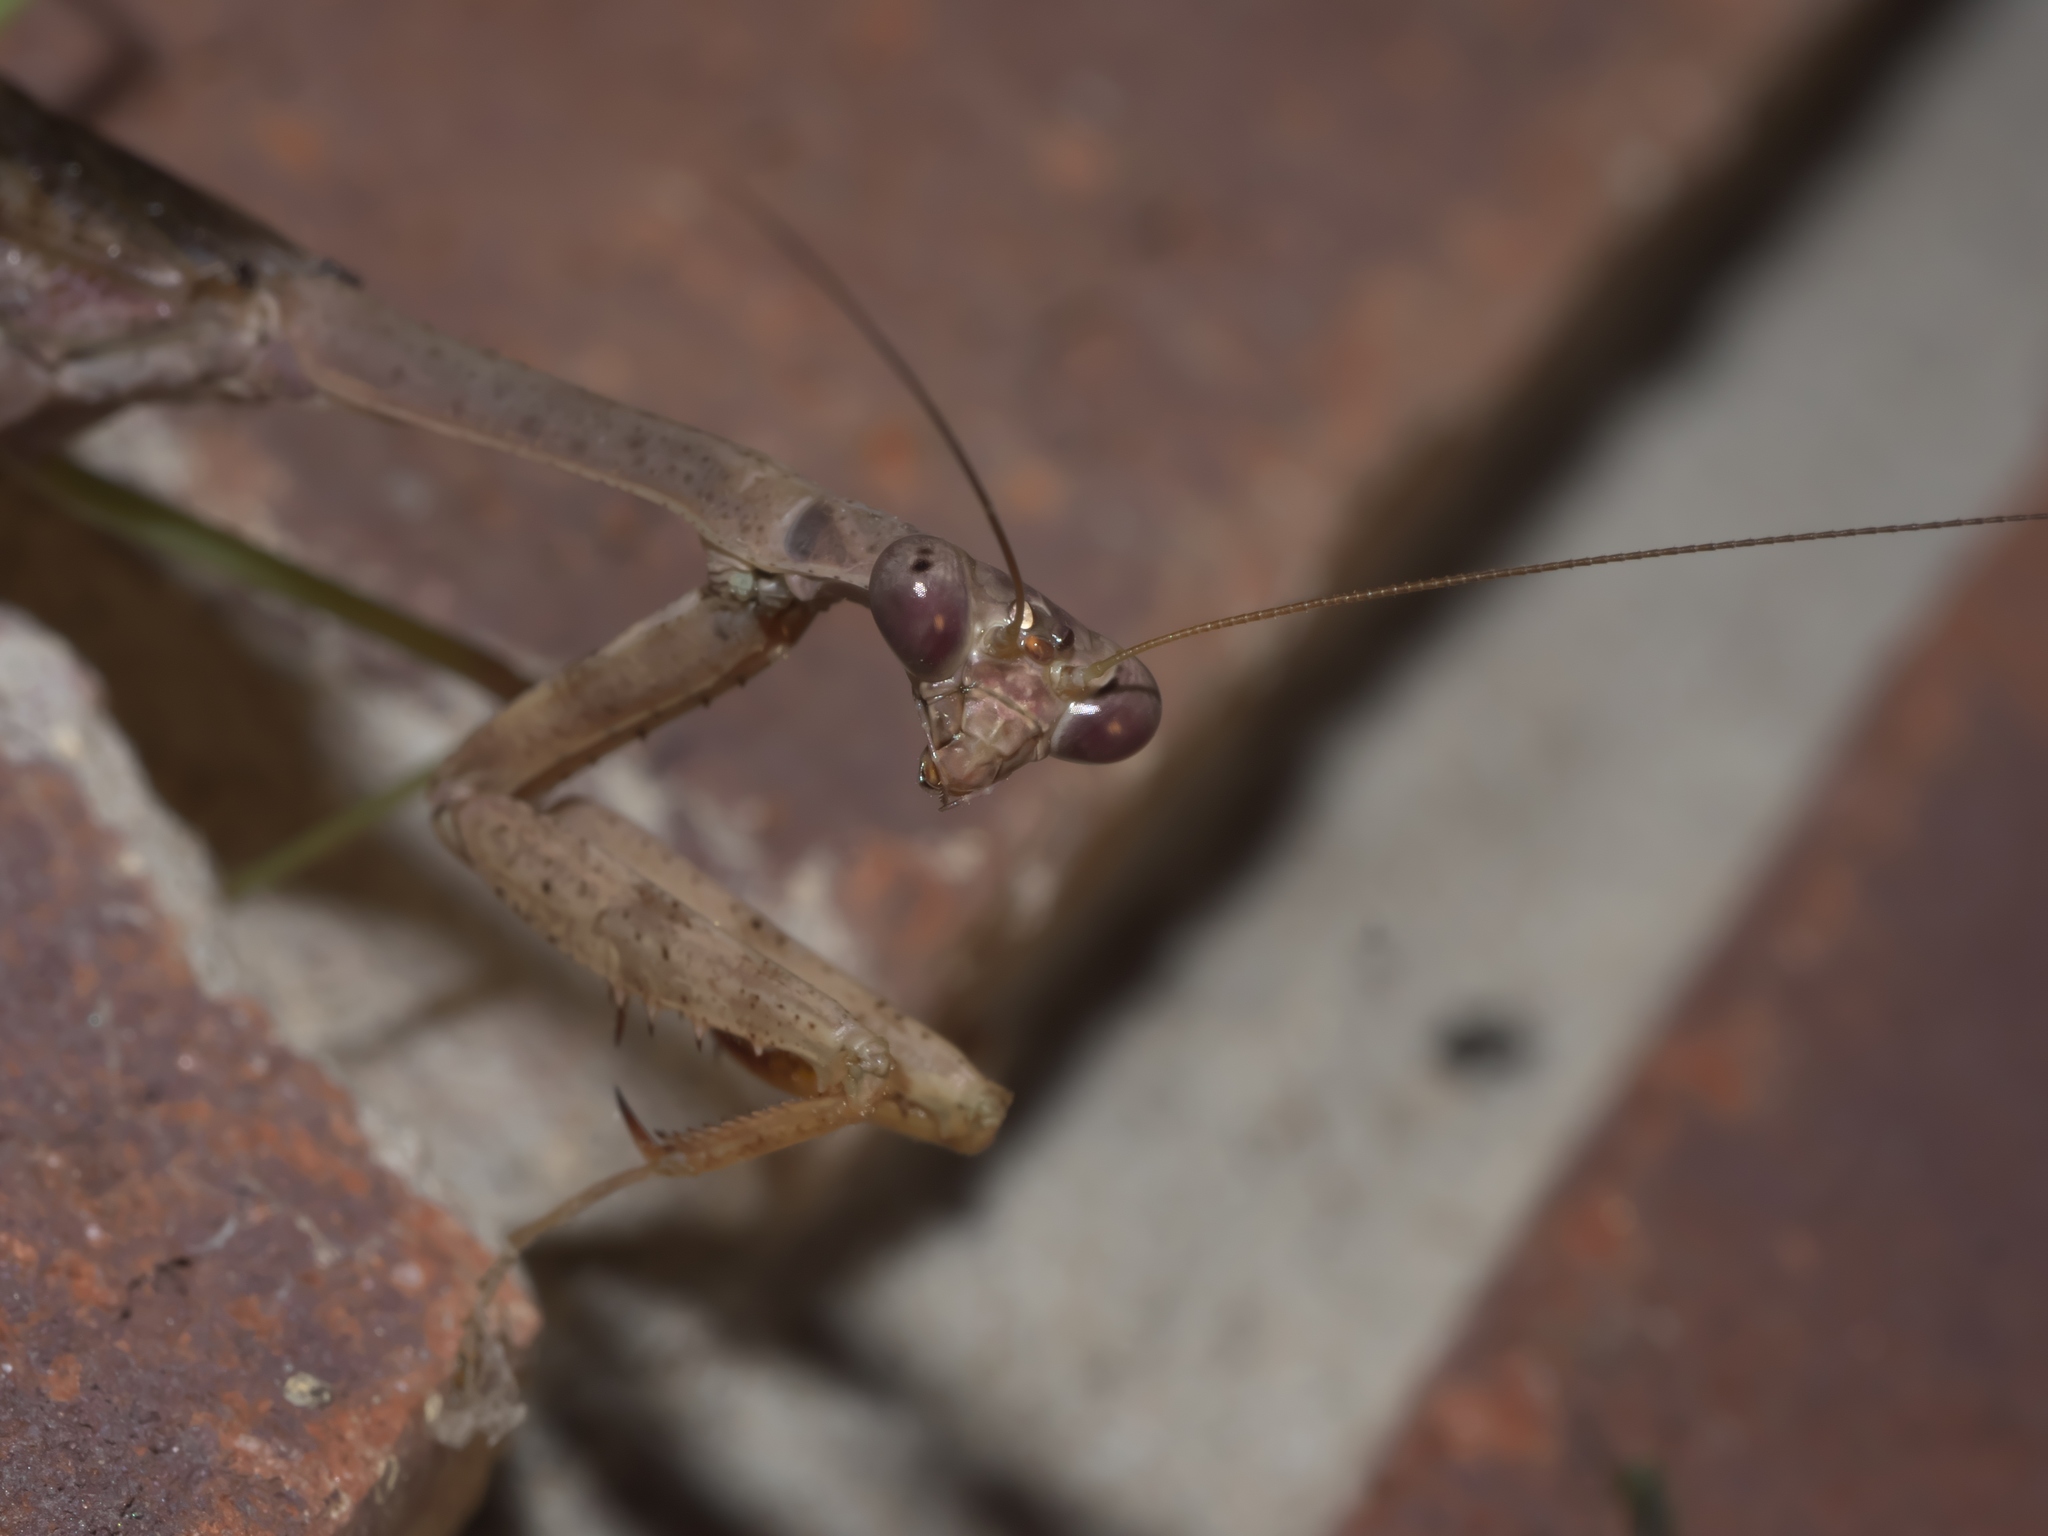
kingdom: Animalia
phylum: Arthropoda
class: Insecta
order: Mantodea
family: Mantidae
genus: Stagmomantis
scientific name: Stagmomantis carolina
